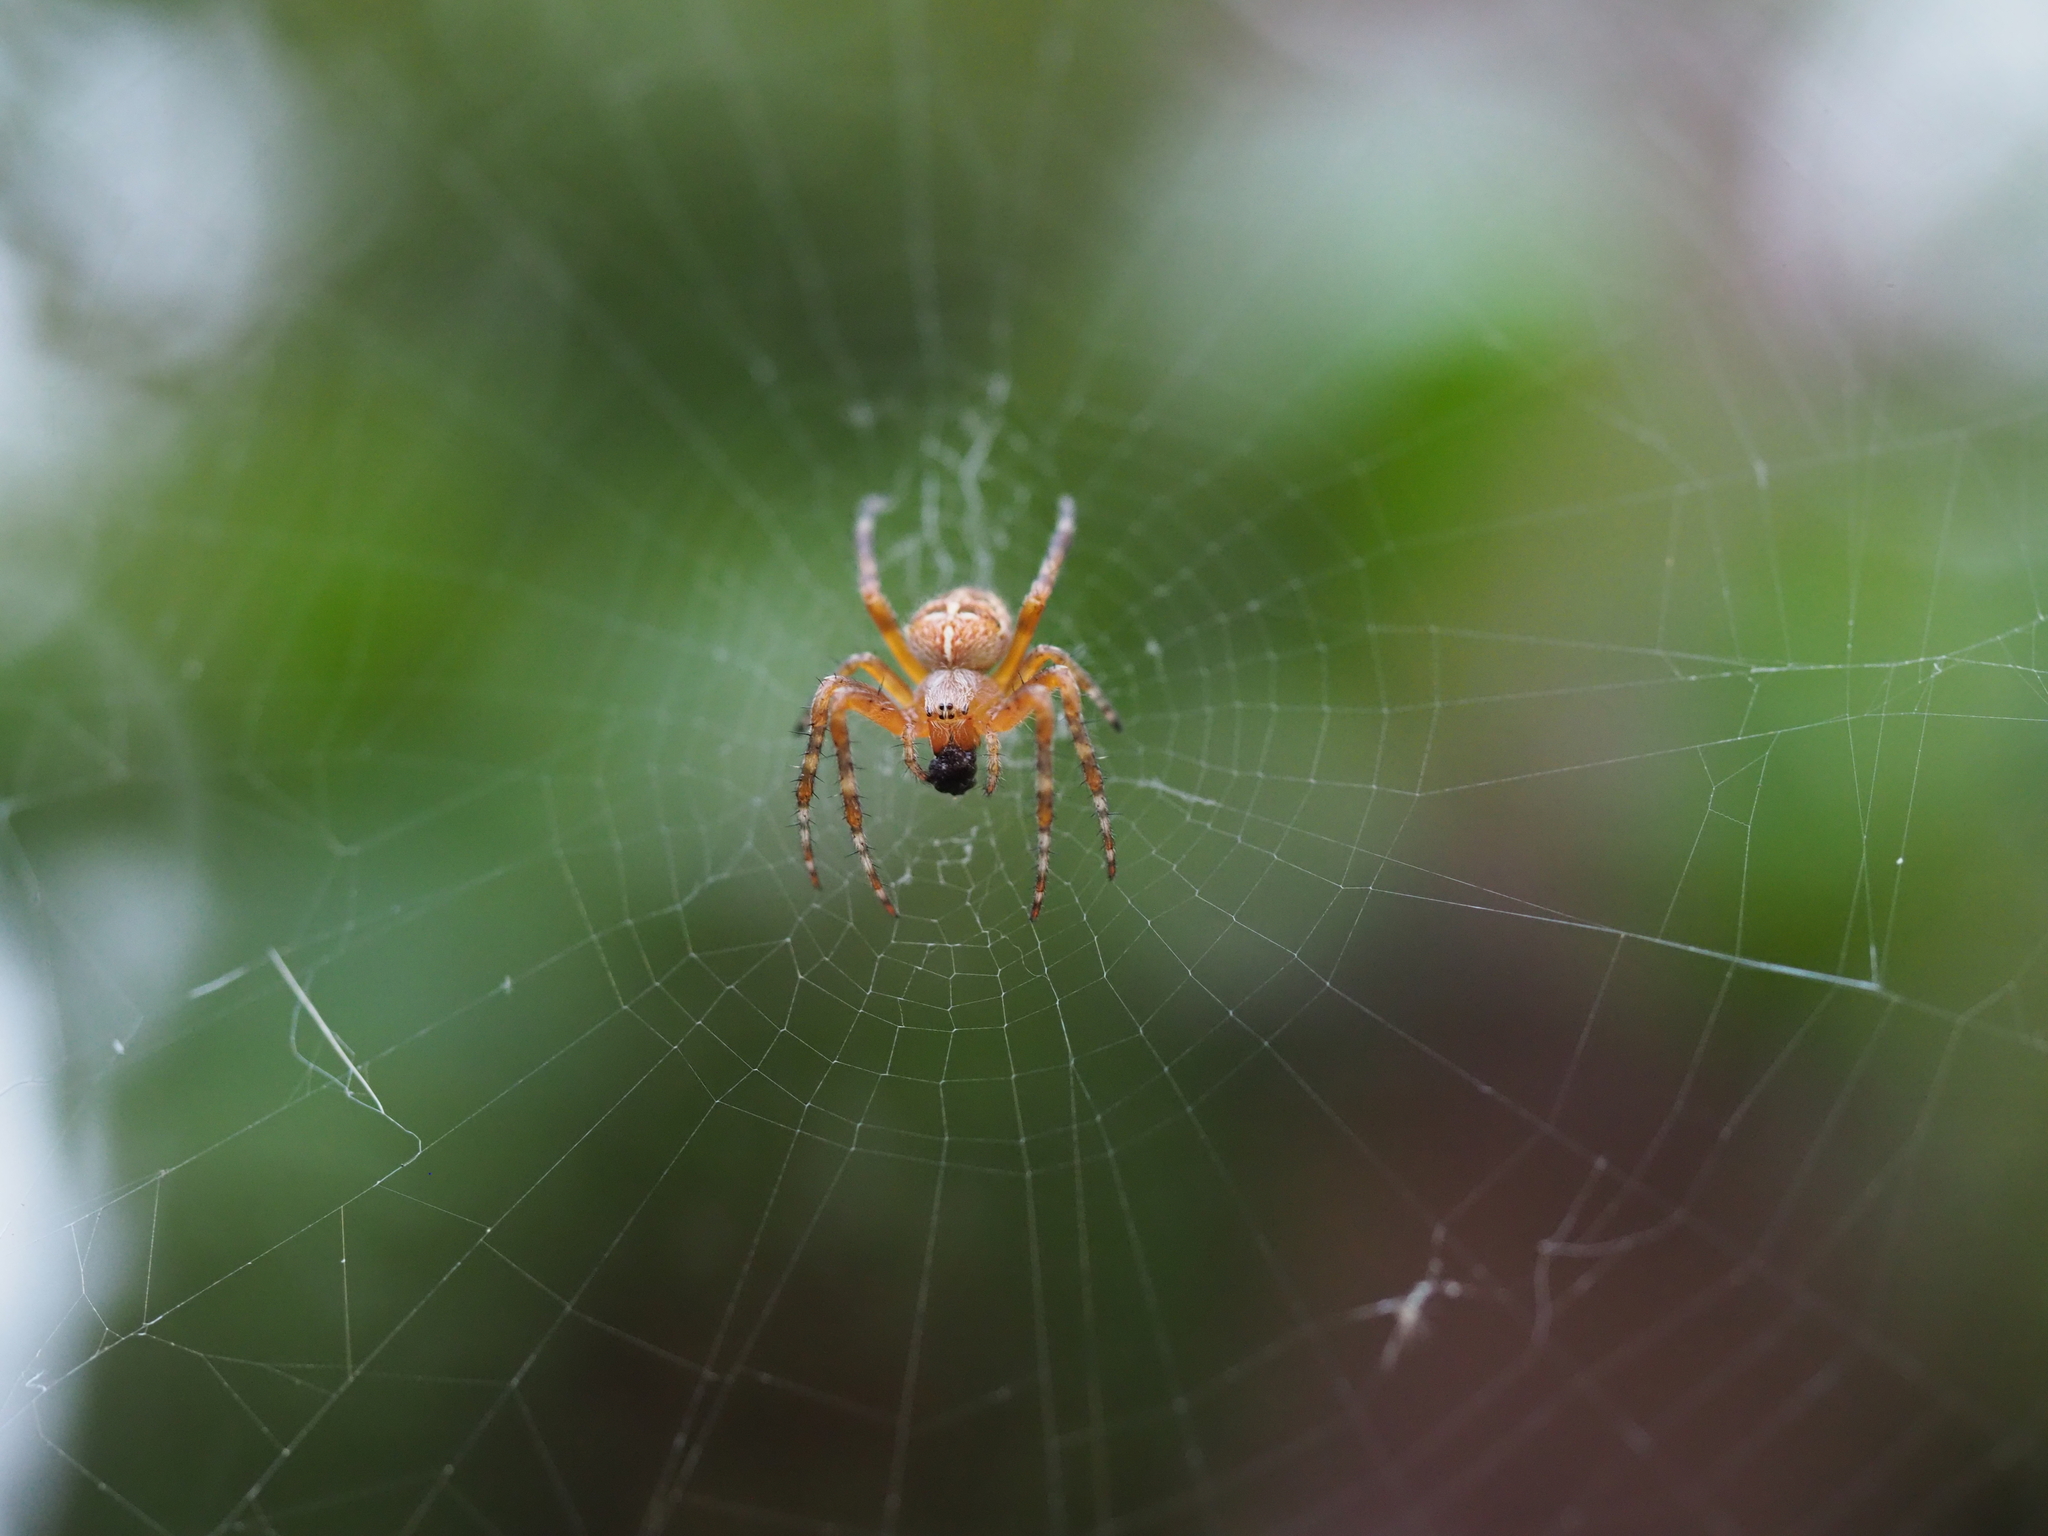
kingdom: Animalia
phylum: Arthropoda
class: Arachnida
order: Araneae
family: Araneidae
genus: Araneus
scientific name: Araneus diadematus
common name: Cross orbweaver
